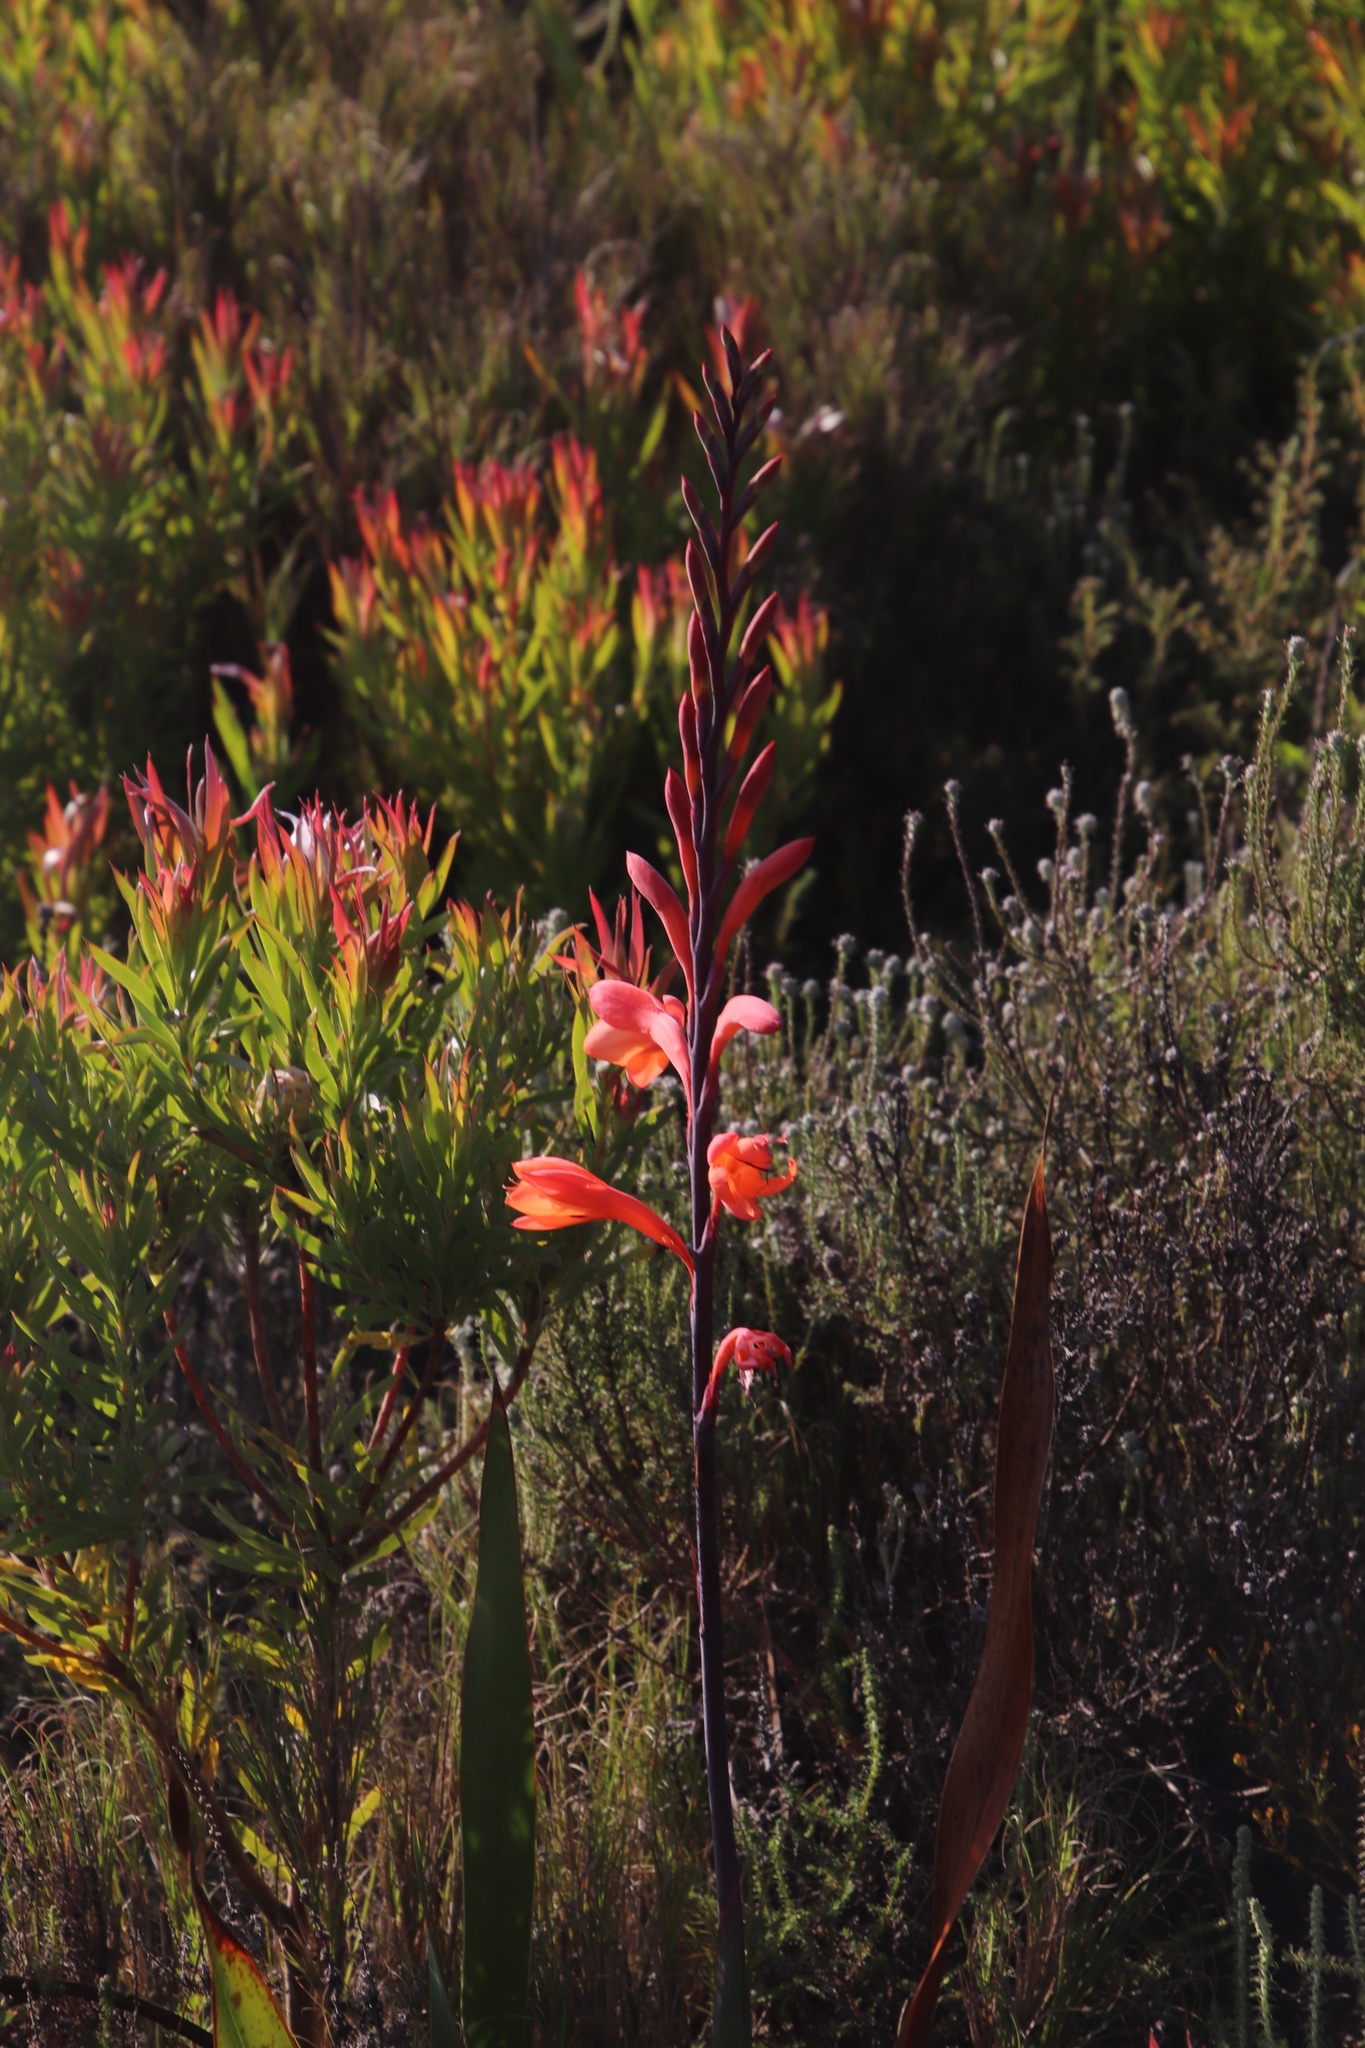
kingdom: Plantae
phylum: Tracheophyta
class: Liliopsida
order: Asparagales
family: Iridaceae
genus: Watsonia
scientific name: Watsonia tabularis
